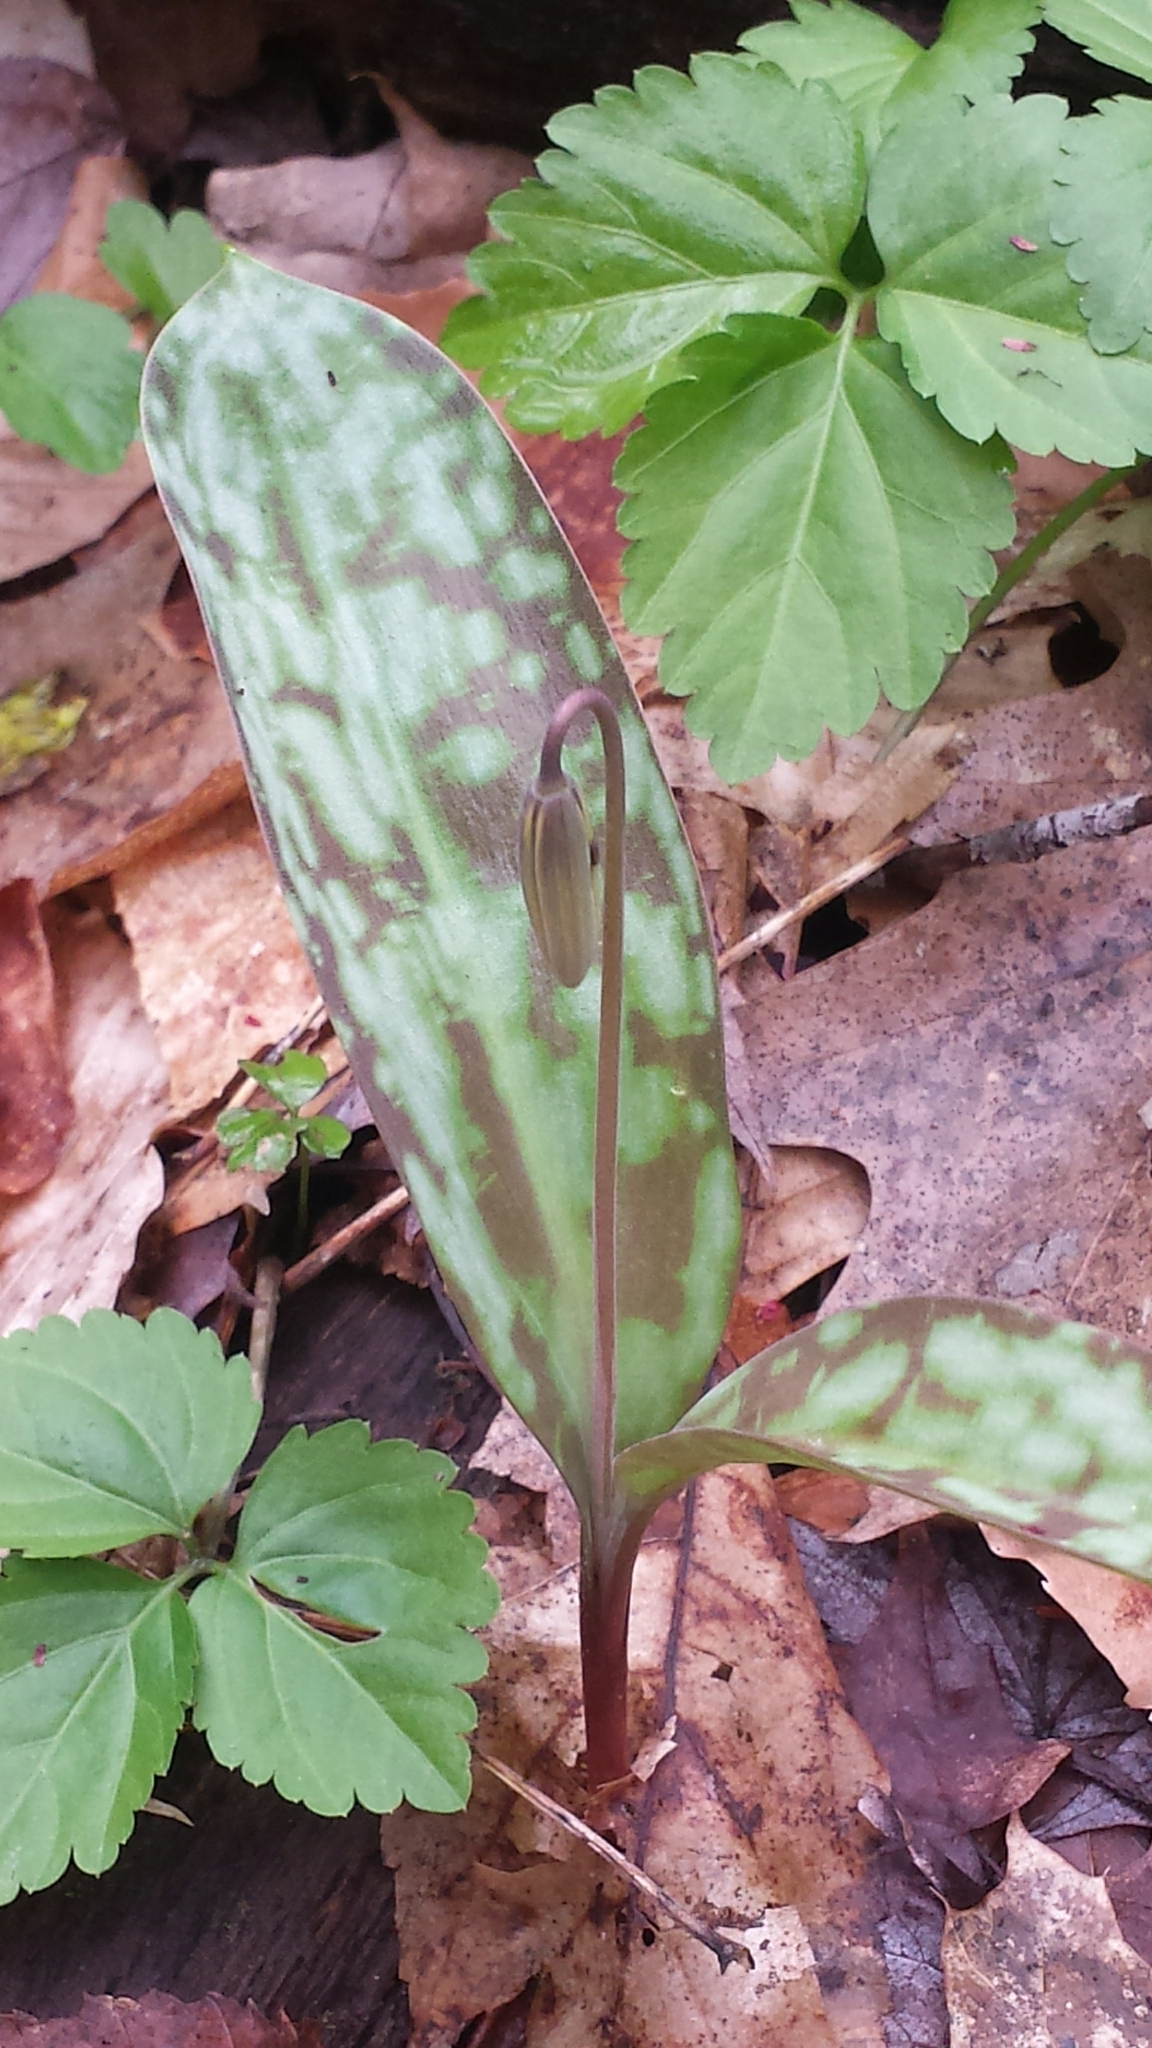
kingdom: Plantae
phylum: Tracheophyta
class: Liliopsida
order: Liliales
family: Liliaceae
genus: Erythronium
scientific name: Erythronium americanum
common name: Yellow adder's-tongue
